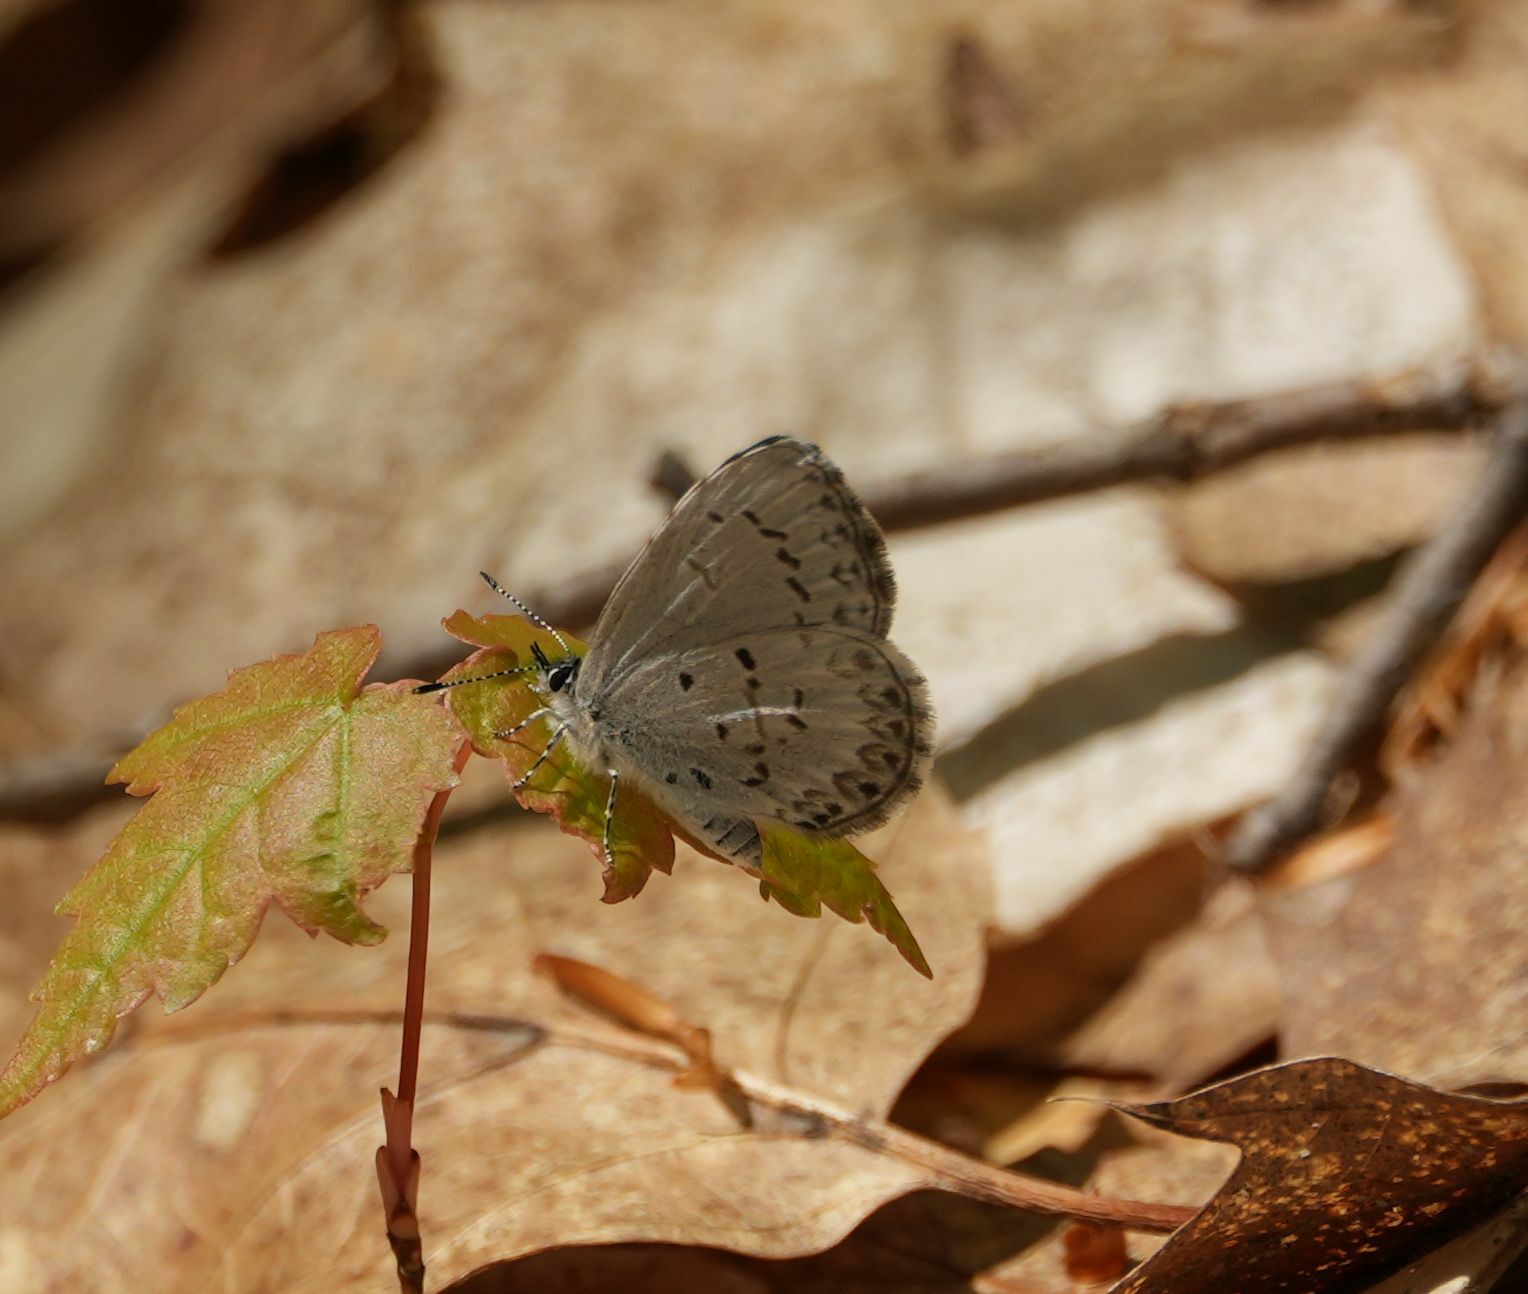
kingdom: Animalia
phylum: Arthropoda
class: Insecta
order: Lepidoptera
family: Lycaenidae
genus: Celastrina
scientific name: Celastrina lucia
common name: Lucia azure
